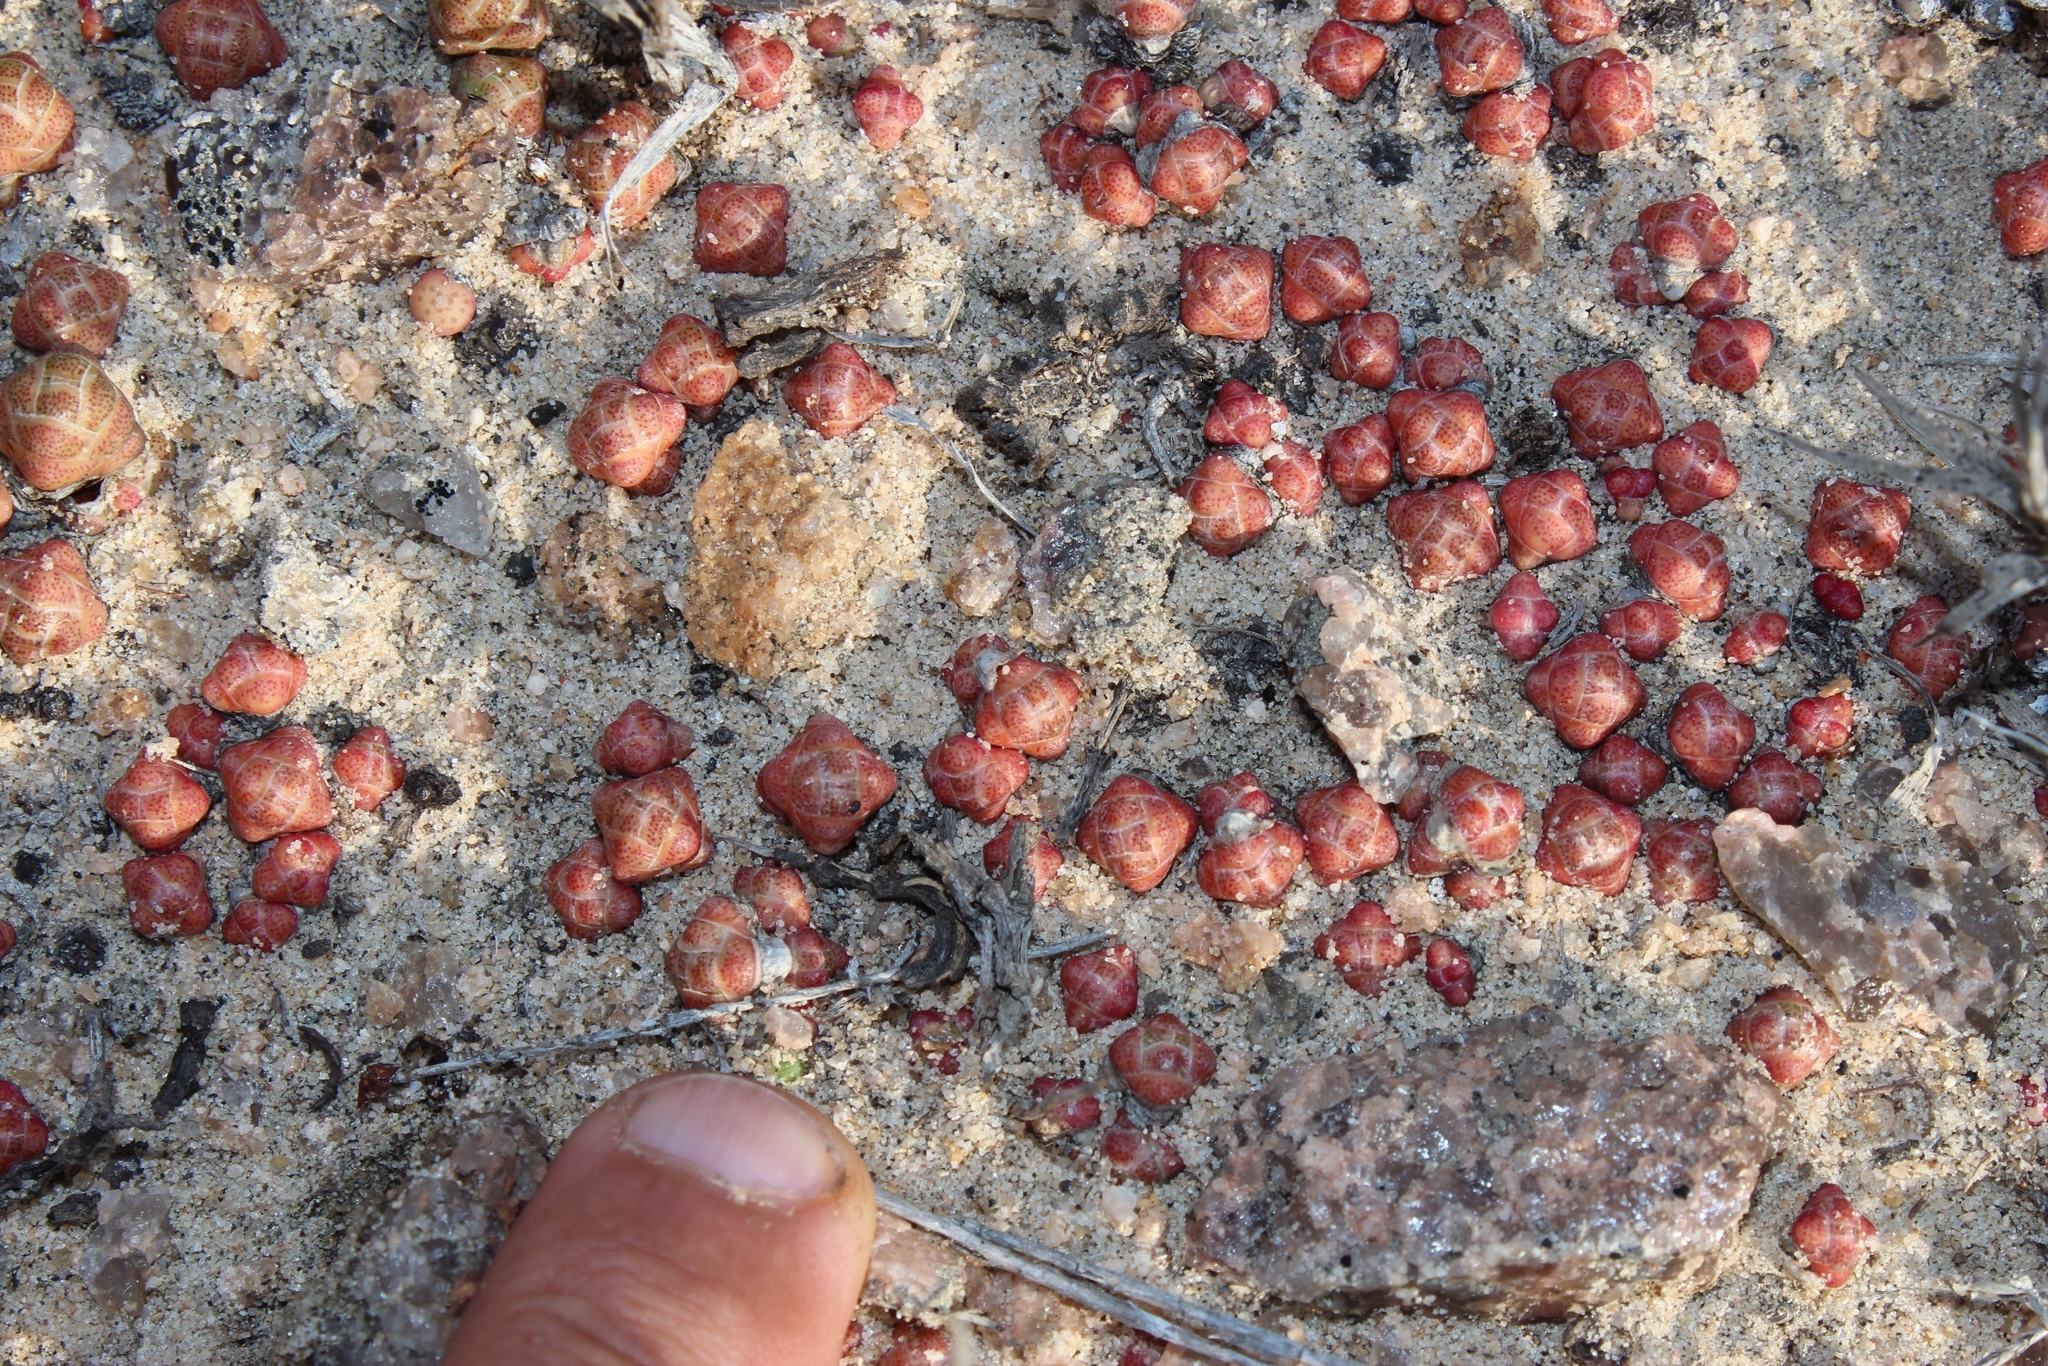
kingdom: Plantae
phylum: Tracheophyta
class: Magnoliopsida
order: Saxifragales
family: Crassulaceae
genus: Crassula
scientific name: Crassula barklyi
